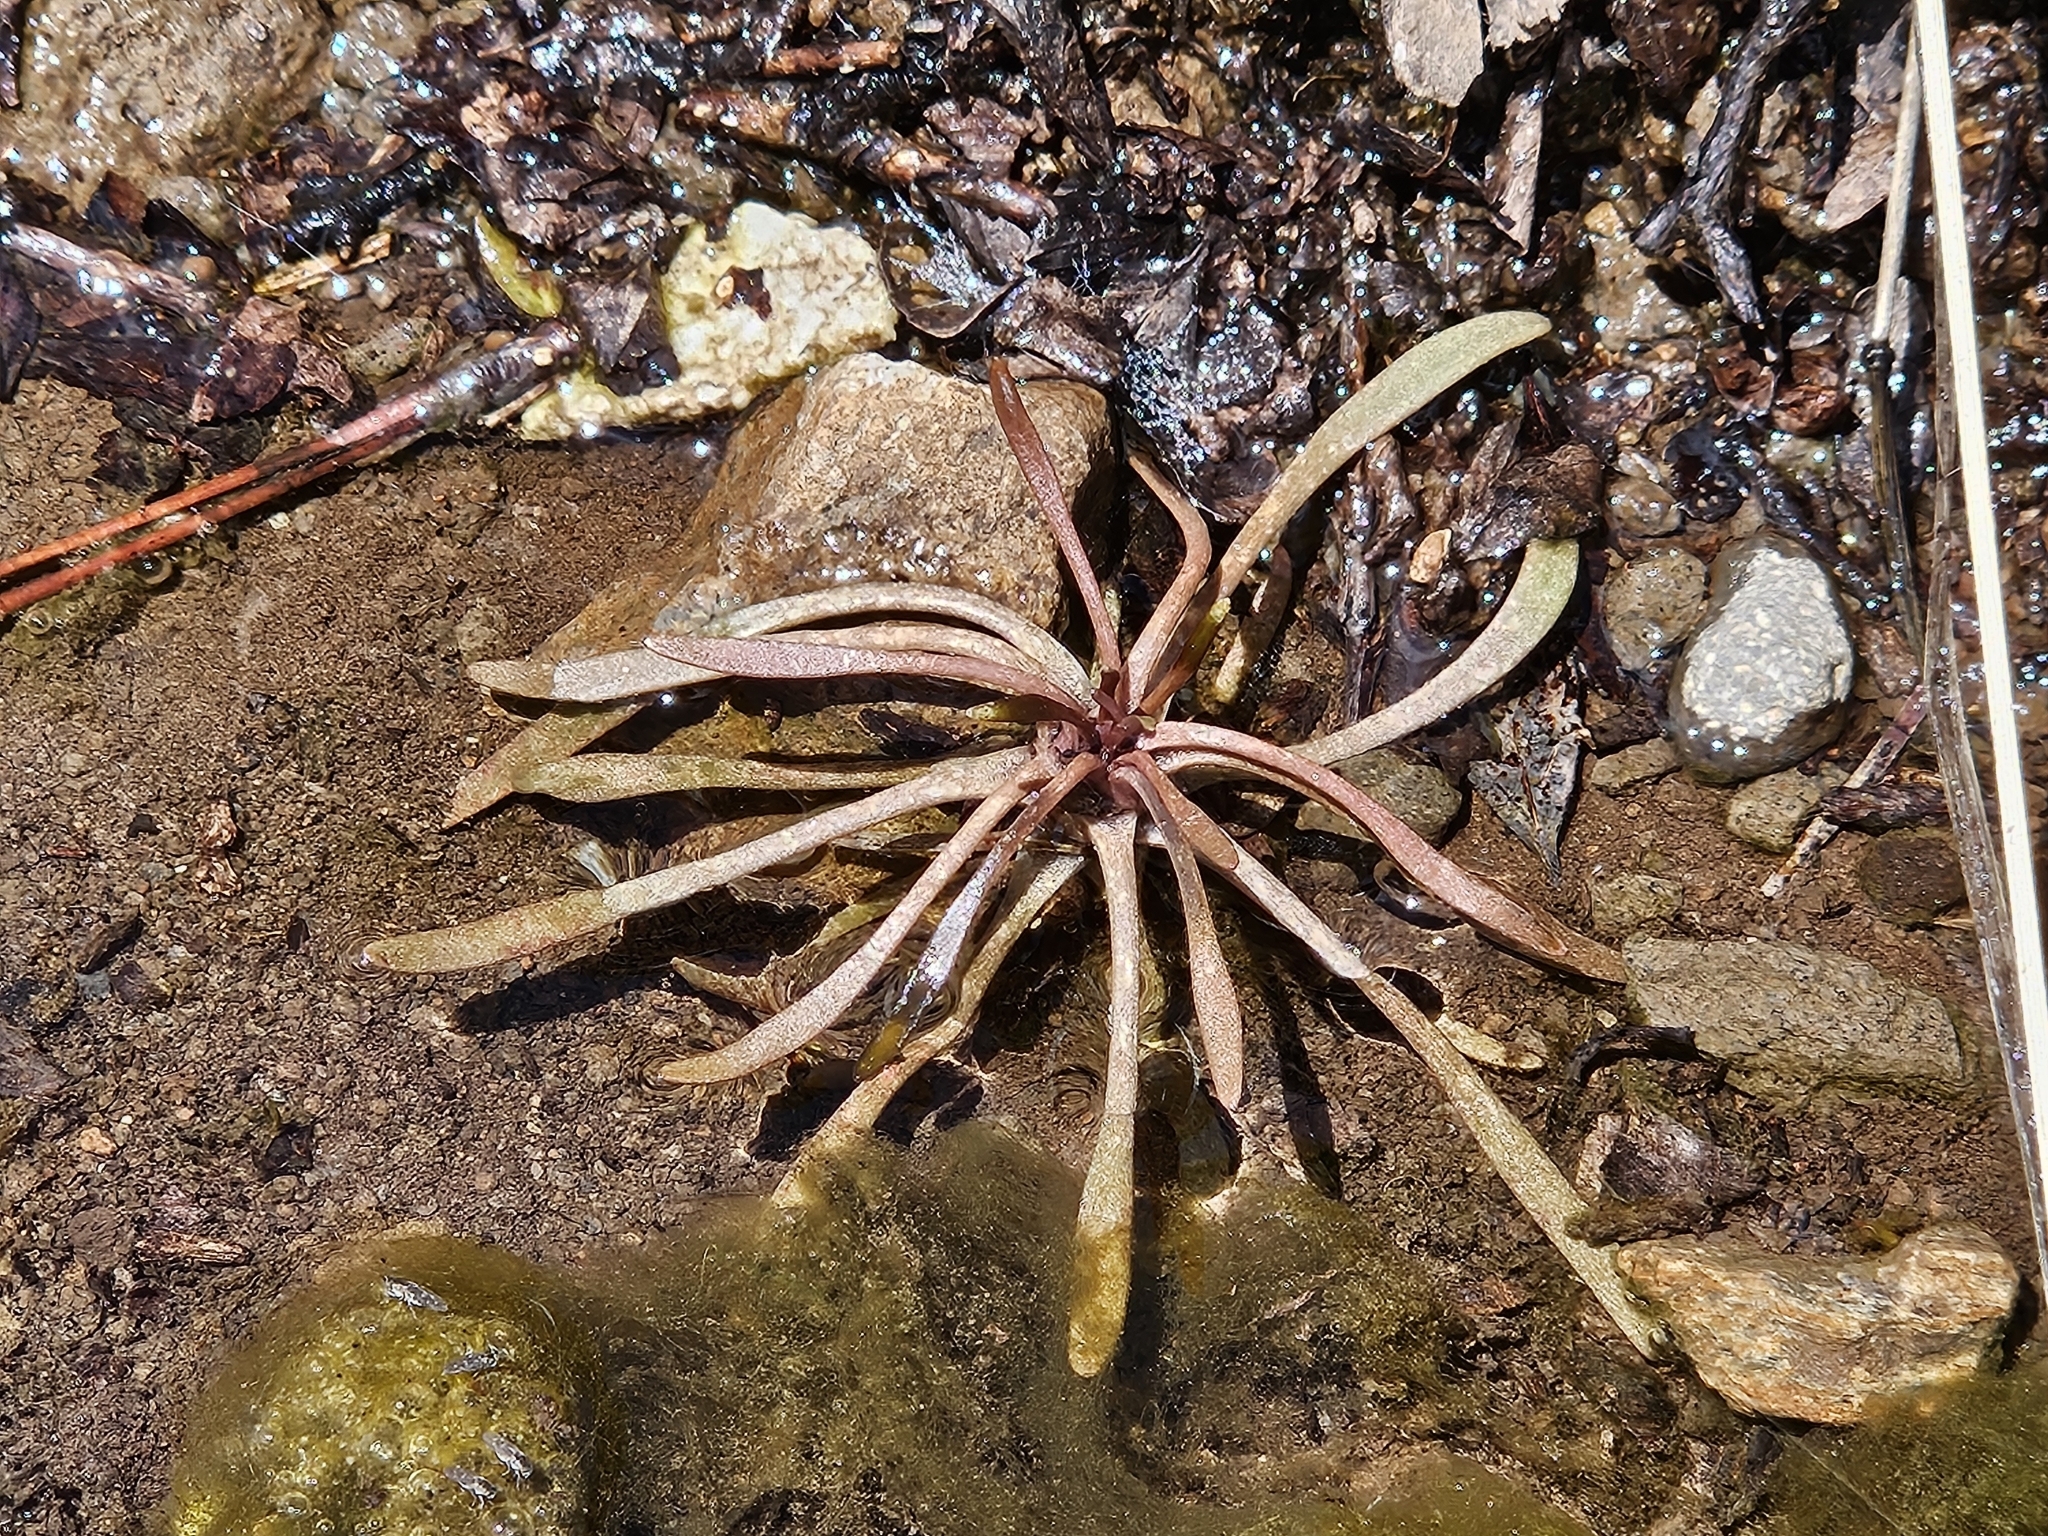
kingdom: Plantae
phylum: Tracheophyta
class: Magnoliopsida
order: Caryophyllales
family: Montiaceae
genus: Claytonia
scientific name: Claytonia parviflora
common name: Indian-lettuce
